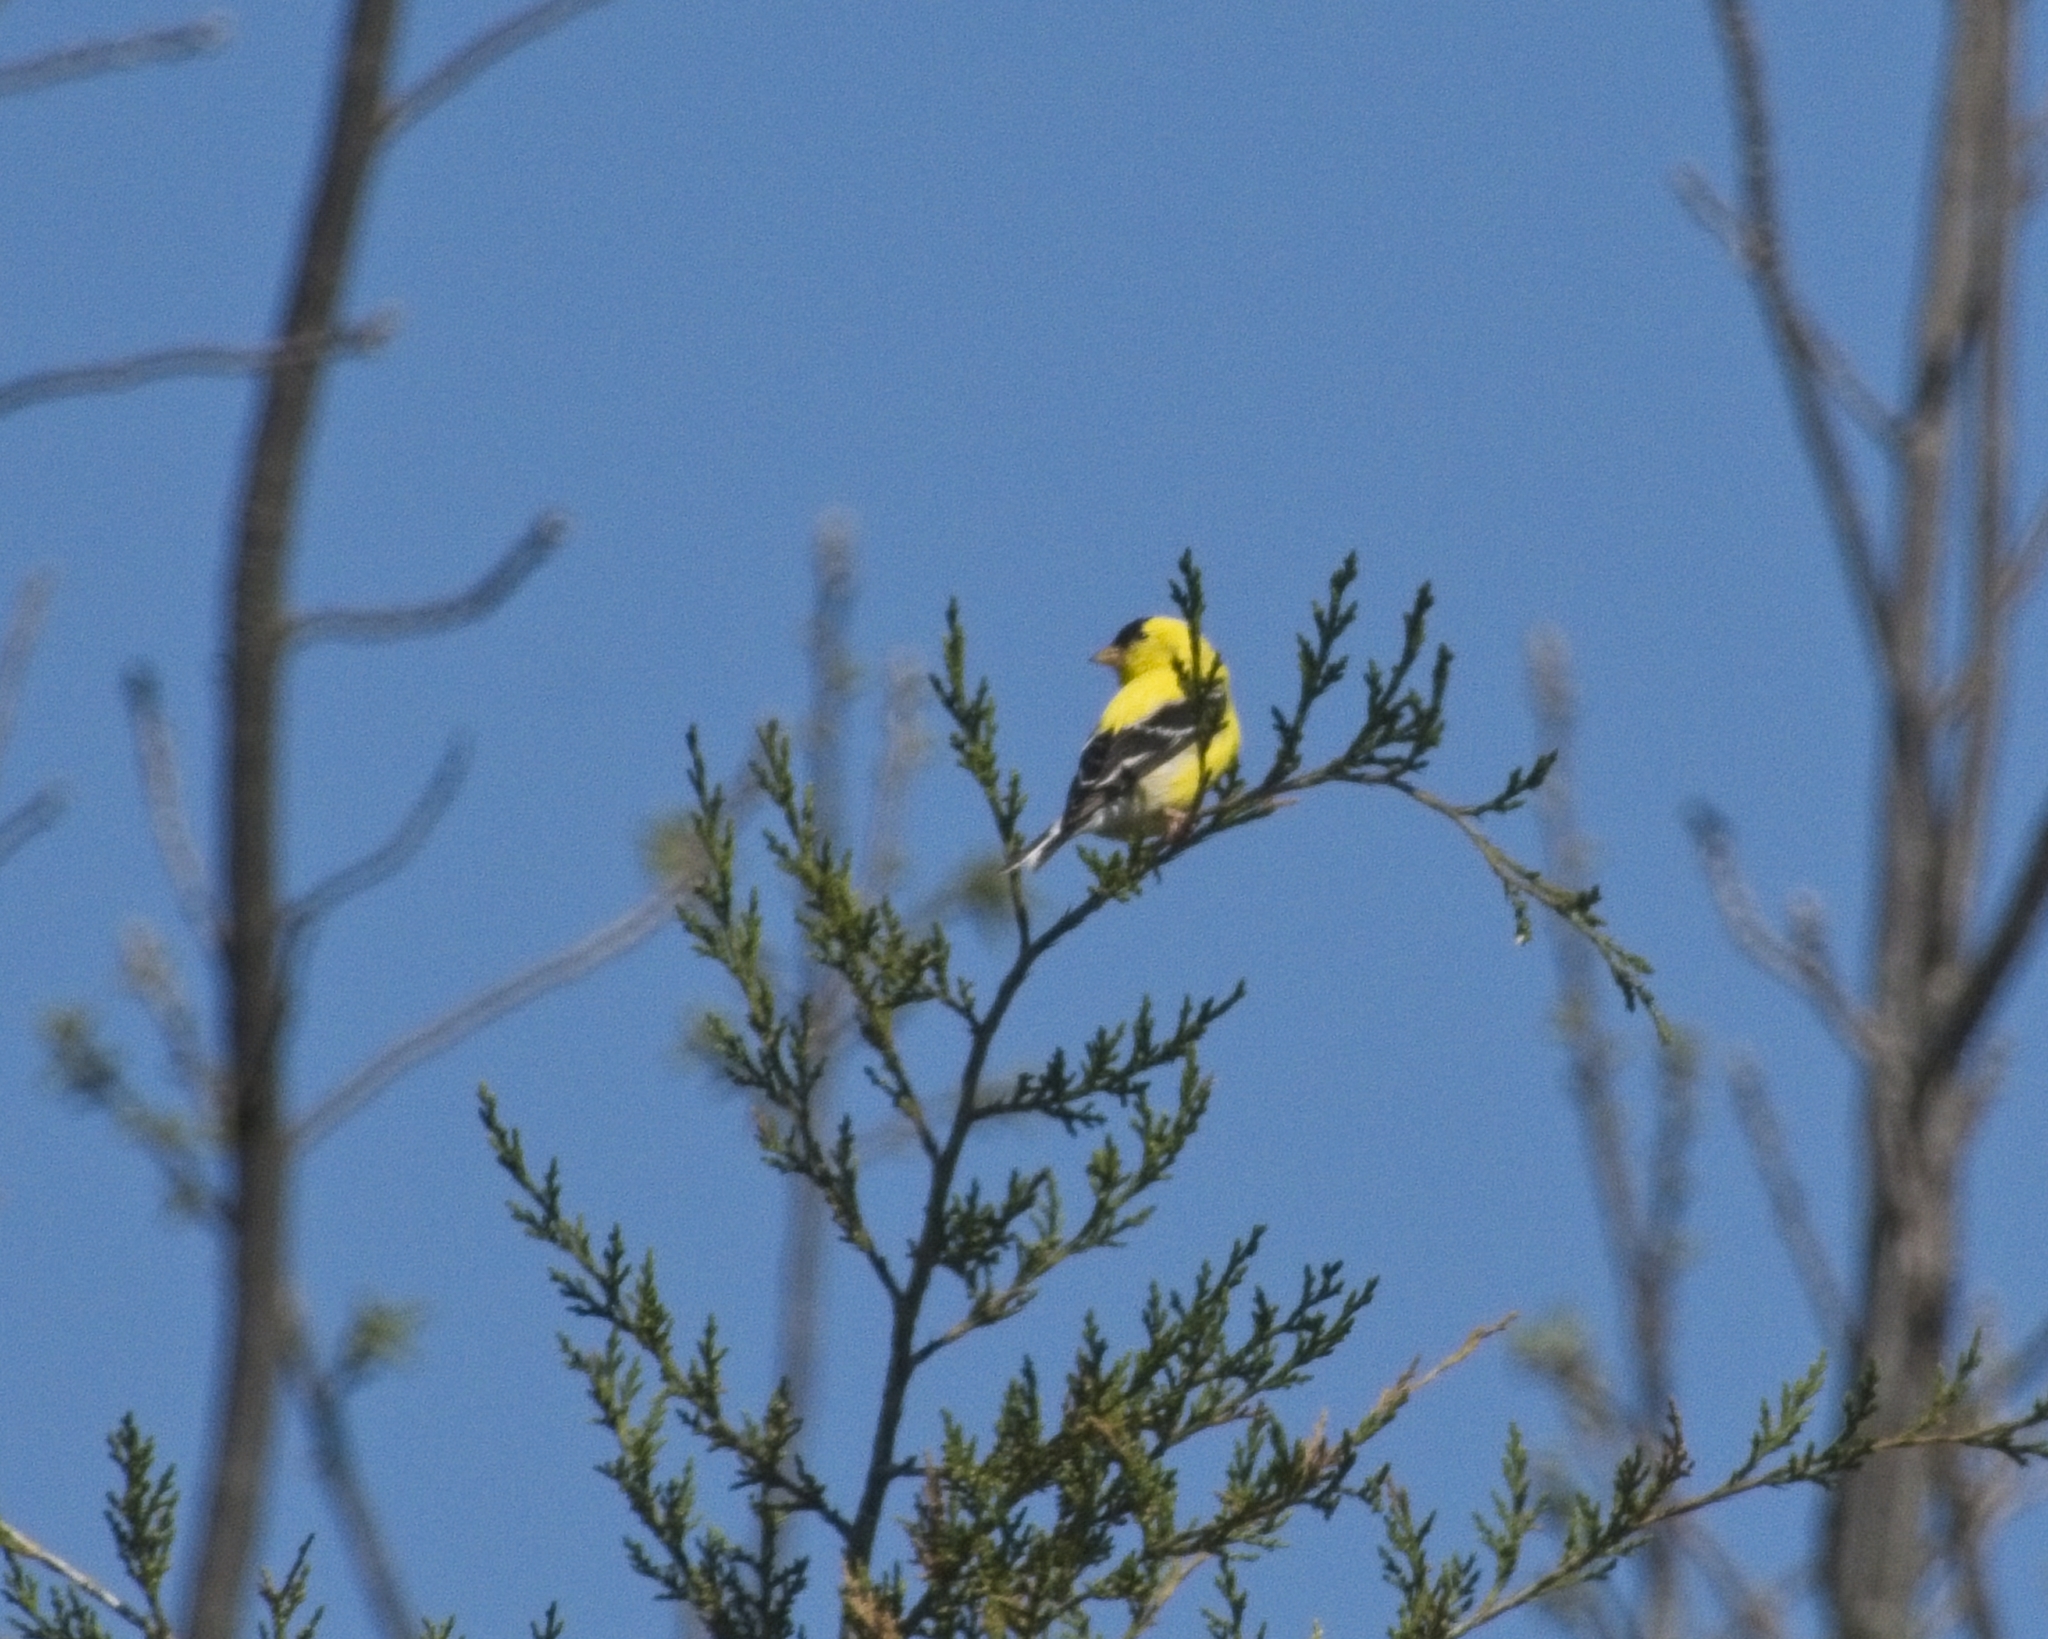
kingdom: Animalia
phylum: Chordata
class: Aves
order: Passeriformes
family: Fringillidae
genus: Spinus
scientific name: Spinus tristis
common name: American goldfinch
